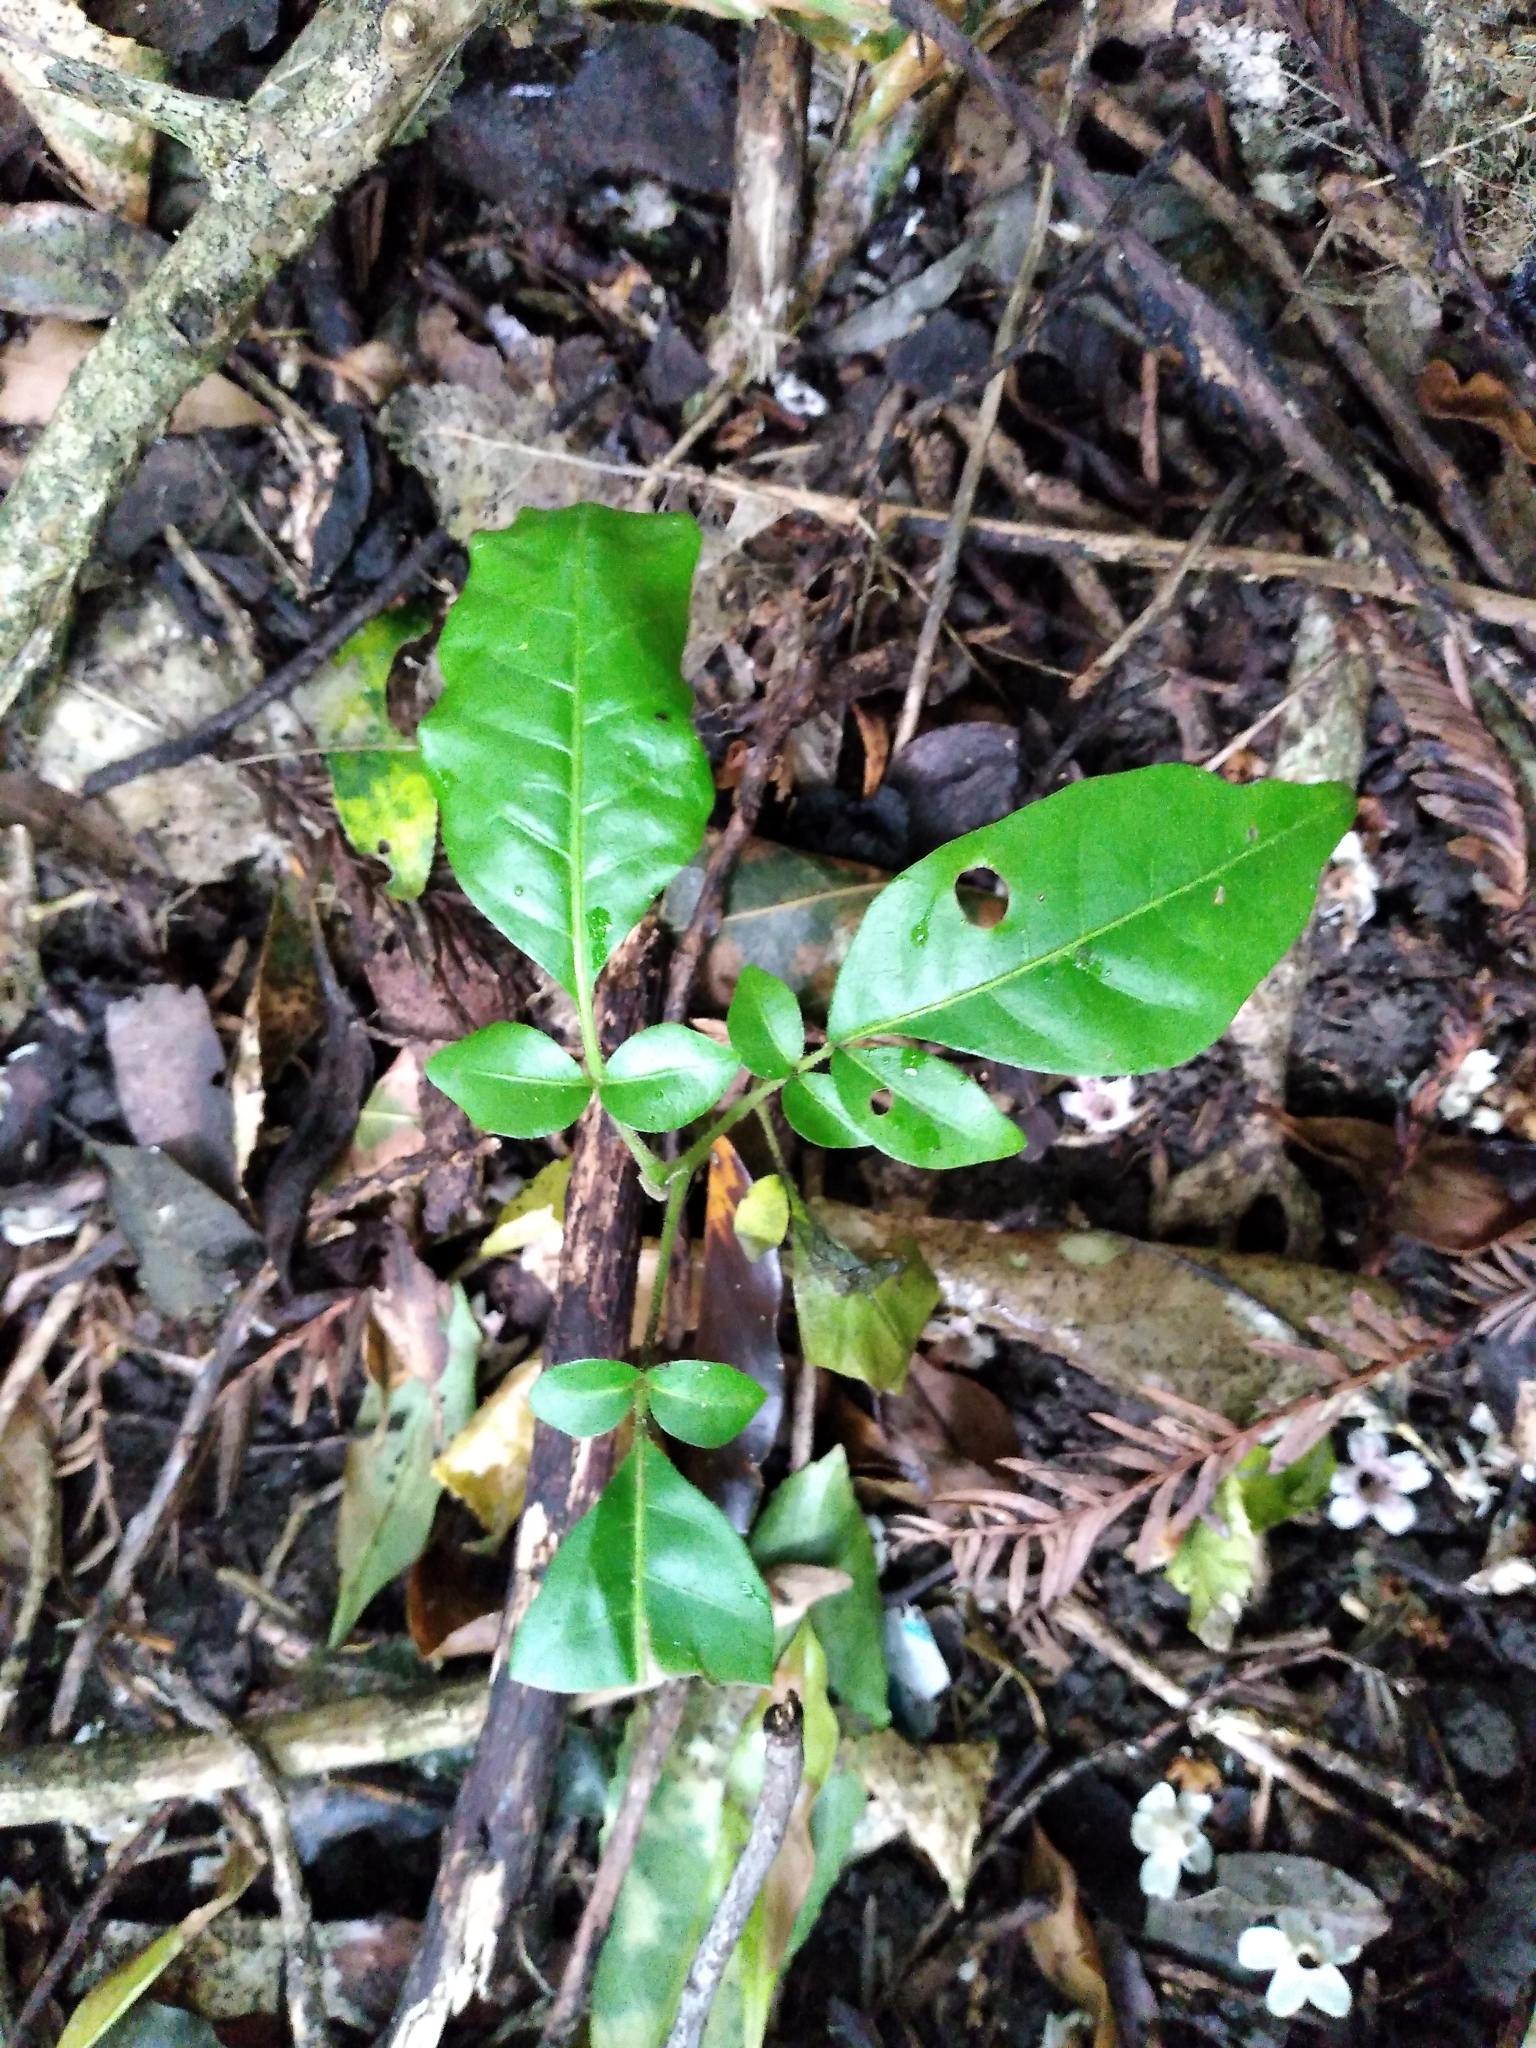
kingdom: Plantae
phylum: Tracheophyta
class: Magnoliopsida
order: Sapindales
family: Meliaceae
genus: Didymocheton
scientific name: Didymocheton spectabilis
